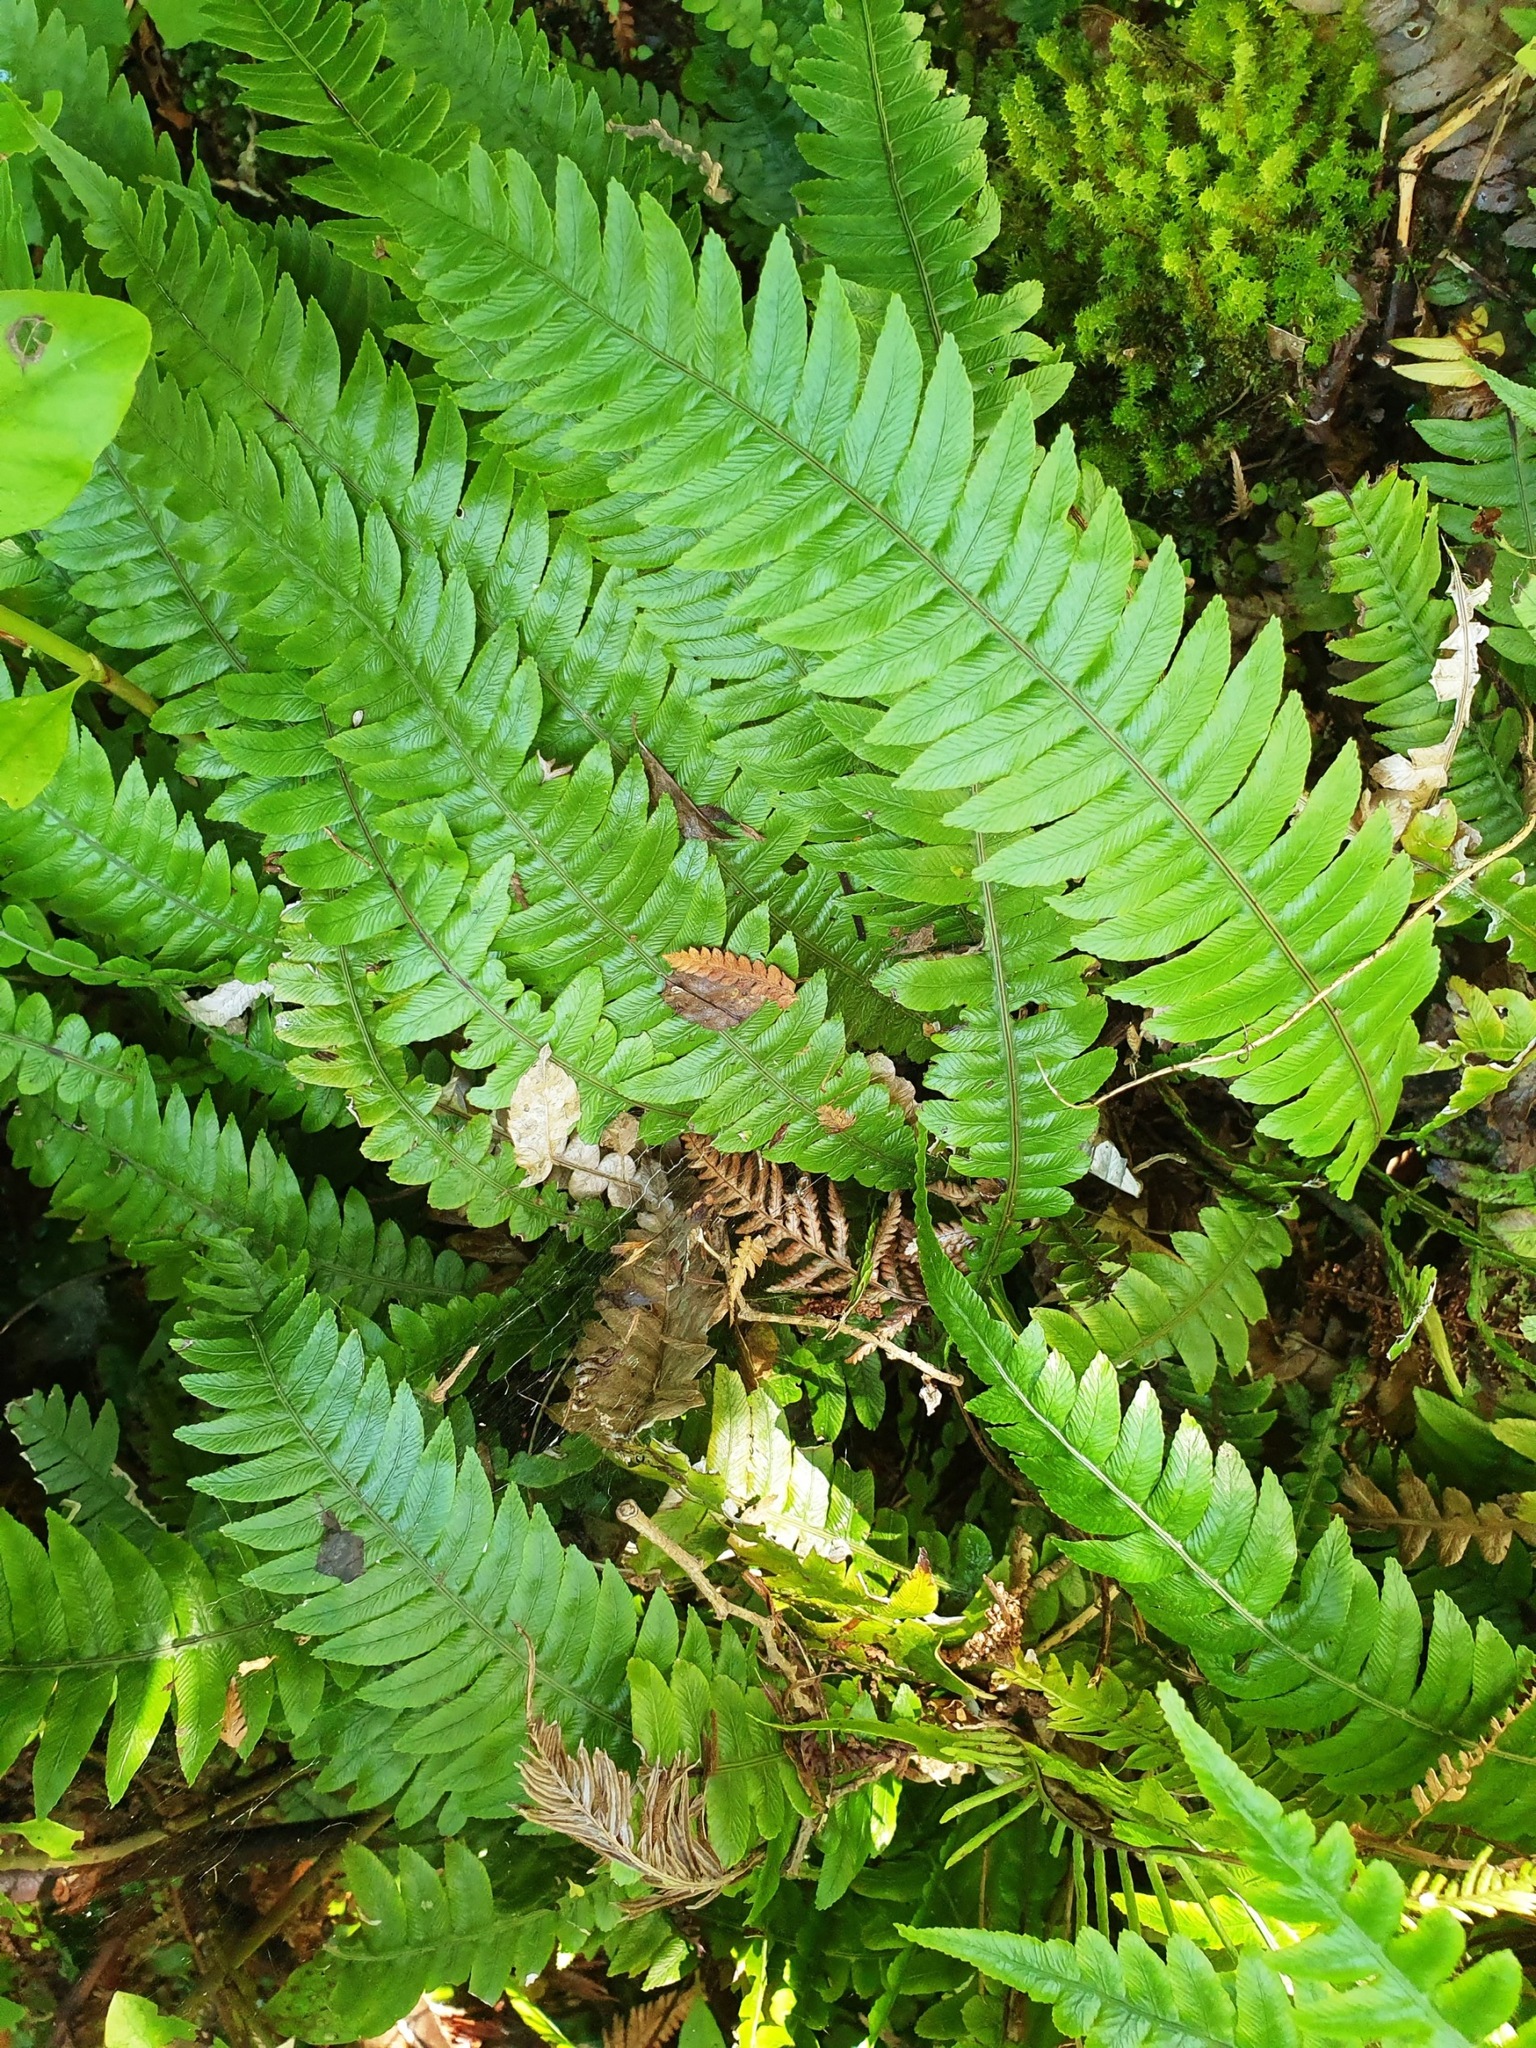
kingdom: Plantae
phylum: Tracheophyta
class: Polypodiopsida
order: Polypodiales
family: Blechnaceae
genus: Austroblechnum
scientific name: Austroblechnum lanceolatum
